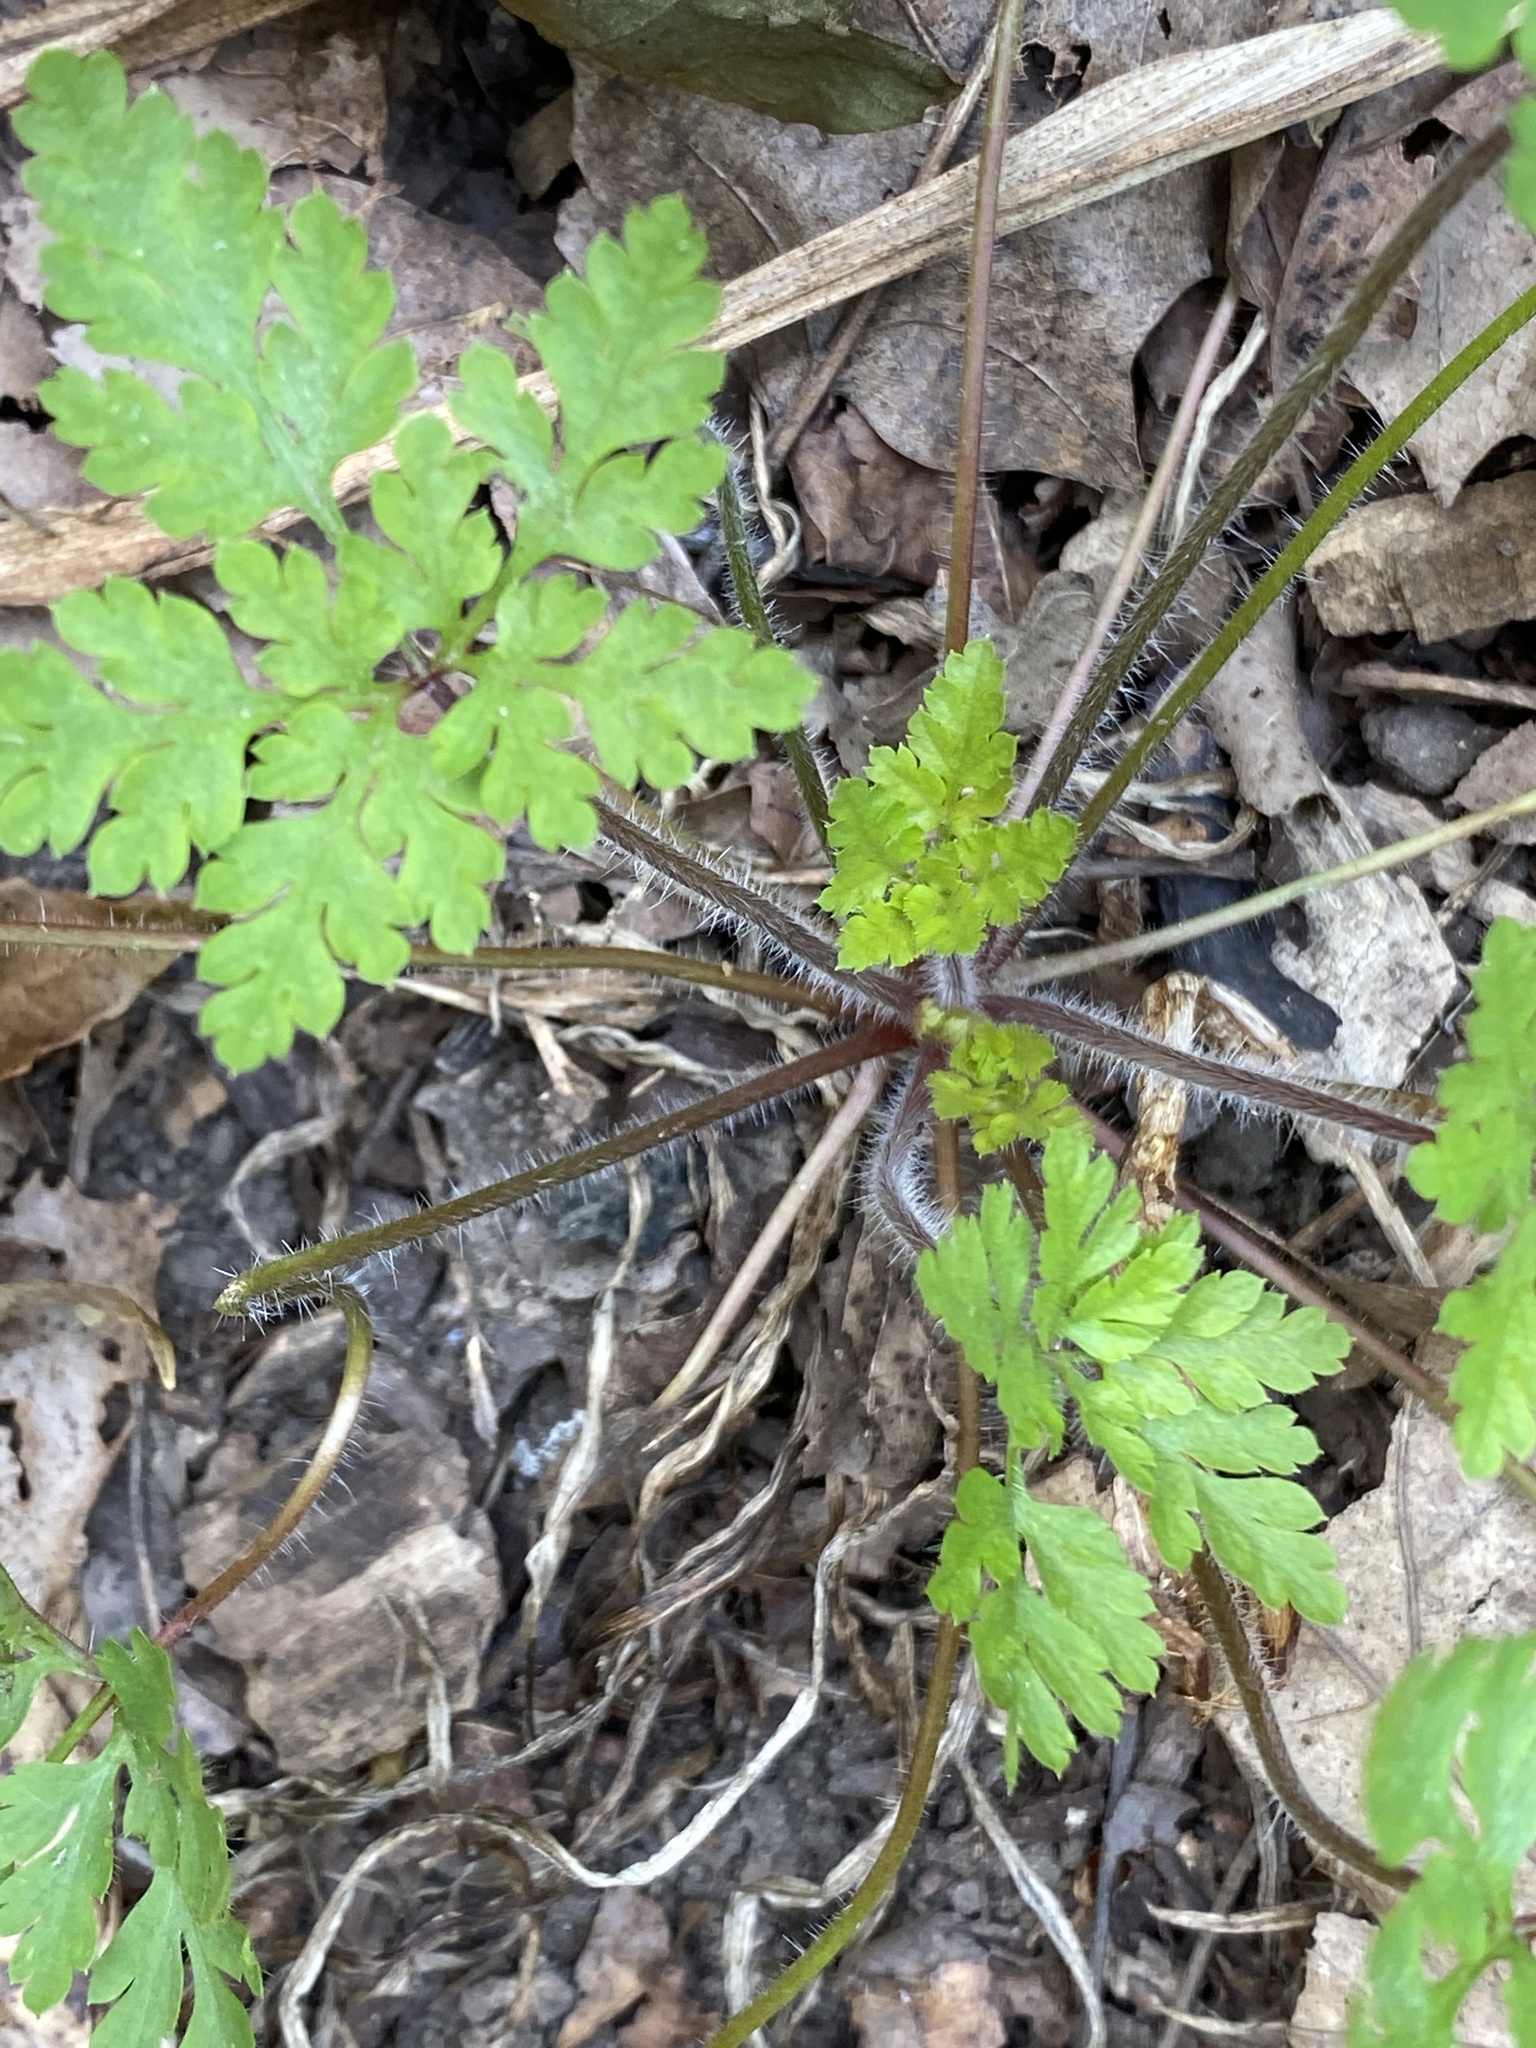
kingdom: Plantae
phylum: Tracheophyta
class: Magnoliopsida
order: Geraniales
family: Geraniaceae
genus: Geranium
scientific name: Geranium robertianum
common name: Herb-robert
